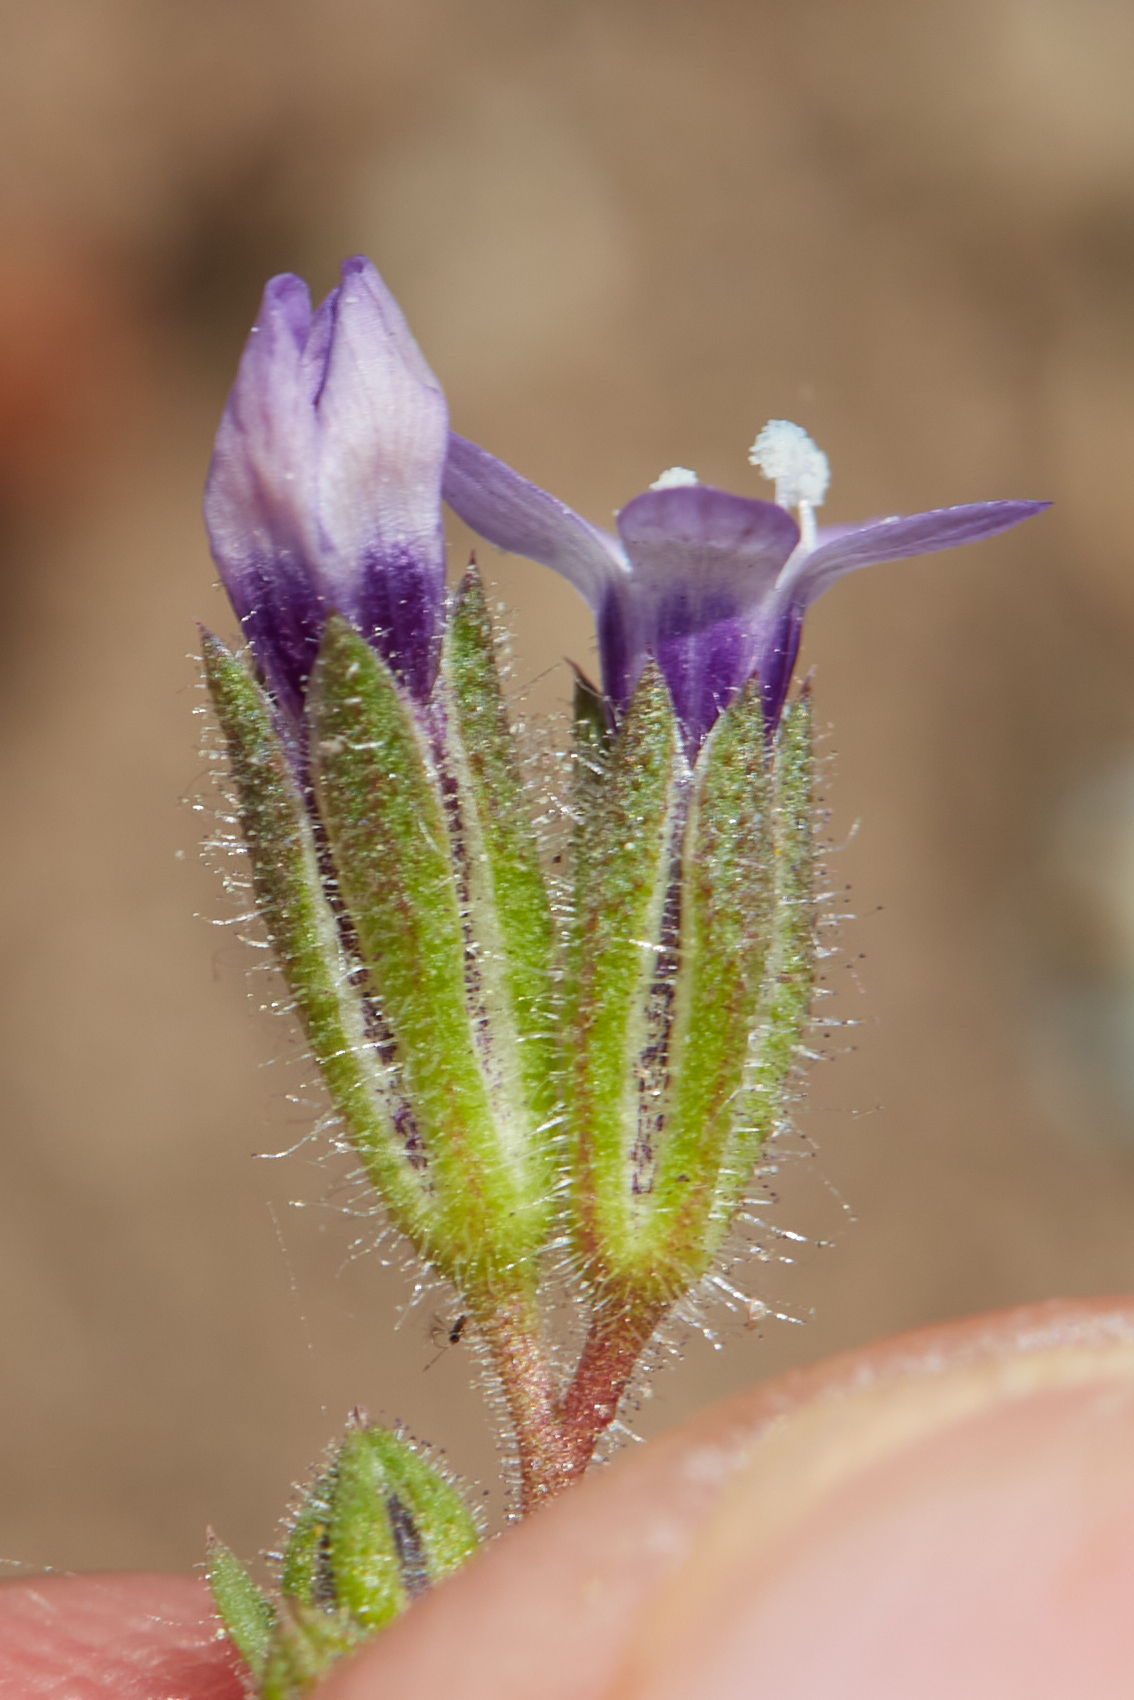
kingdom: Plantae
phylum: Tracheophyta
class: Magnoliopsida
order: Ericales
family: Polemoniaceae
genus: Gilia
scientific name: Gilia clivorum
